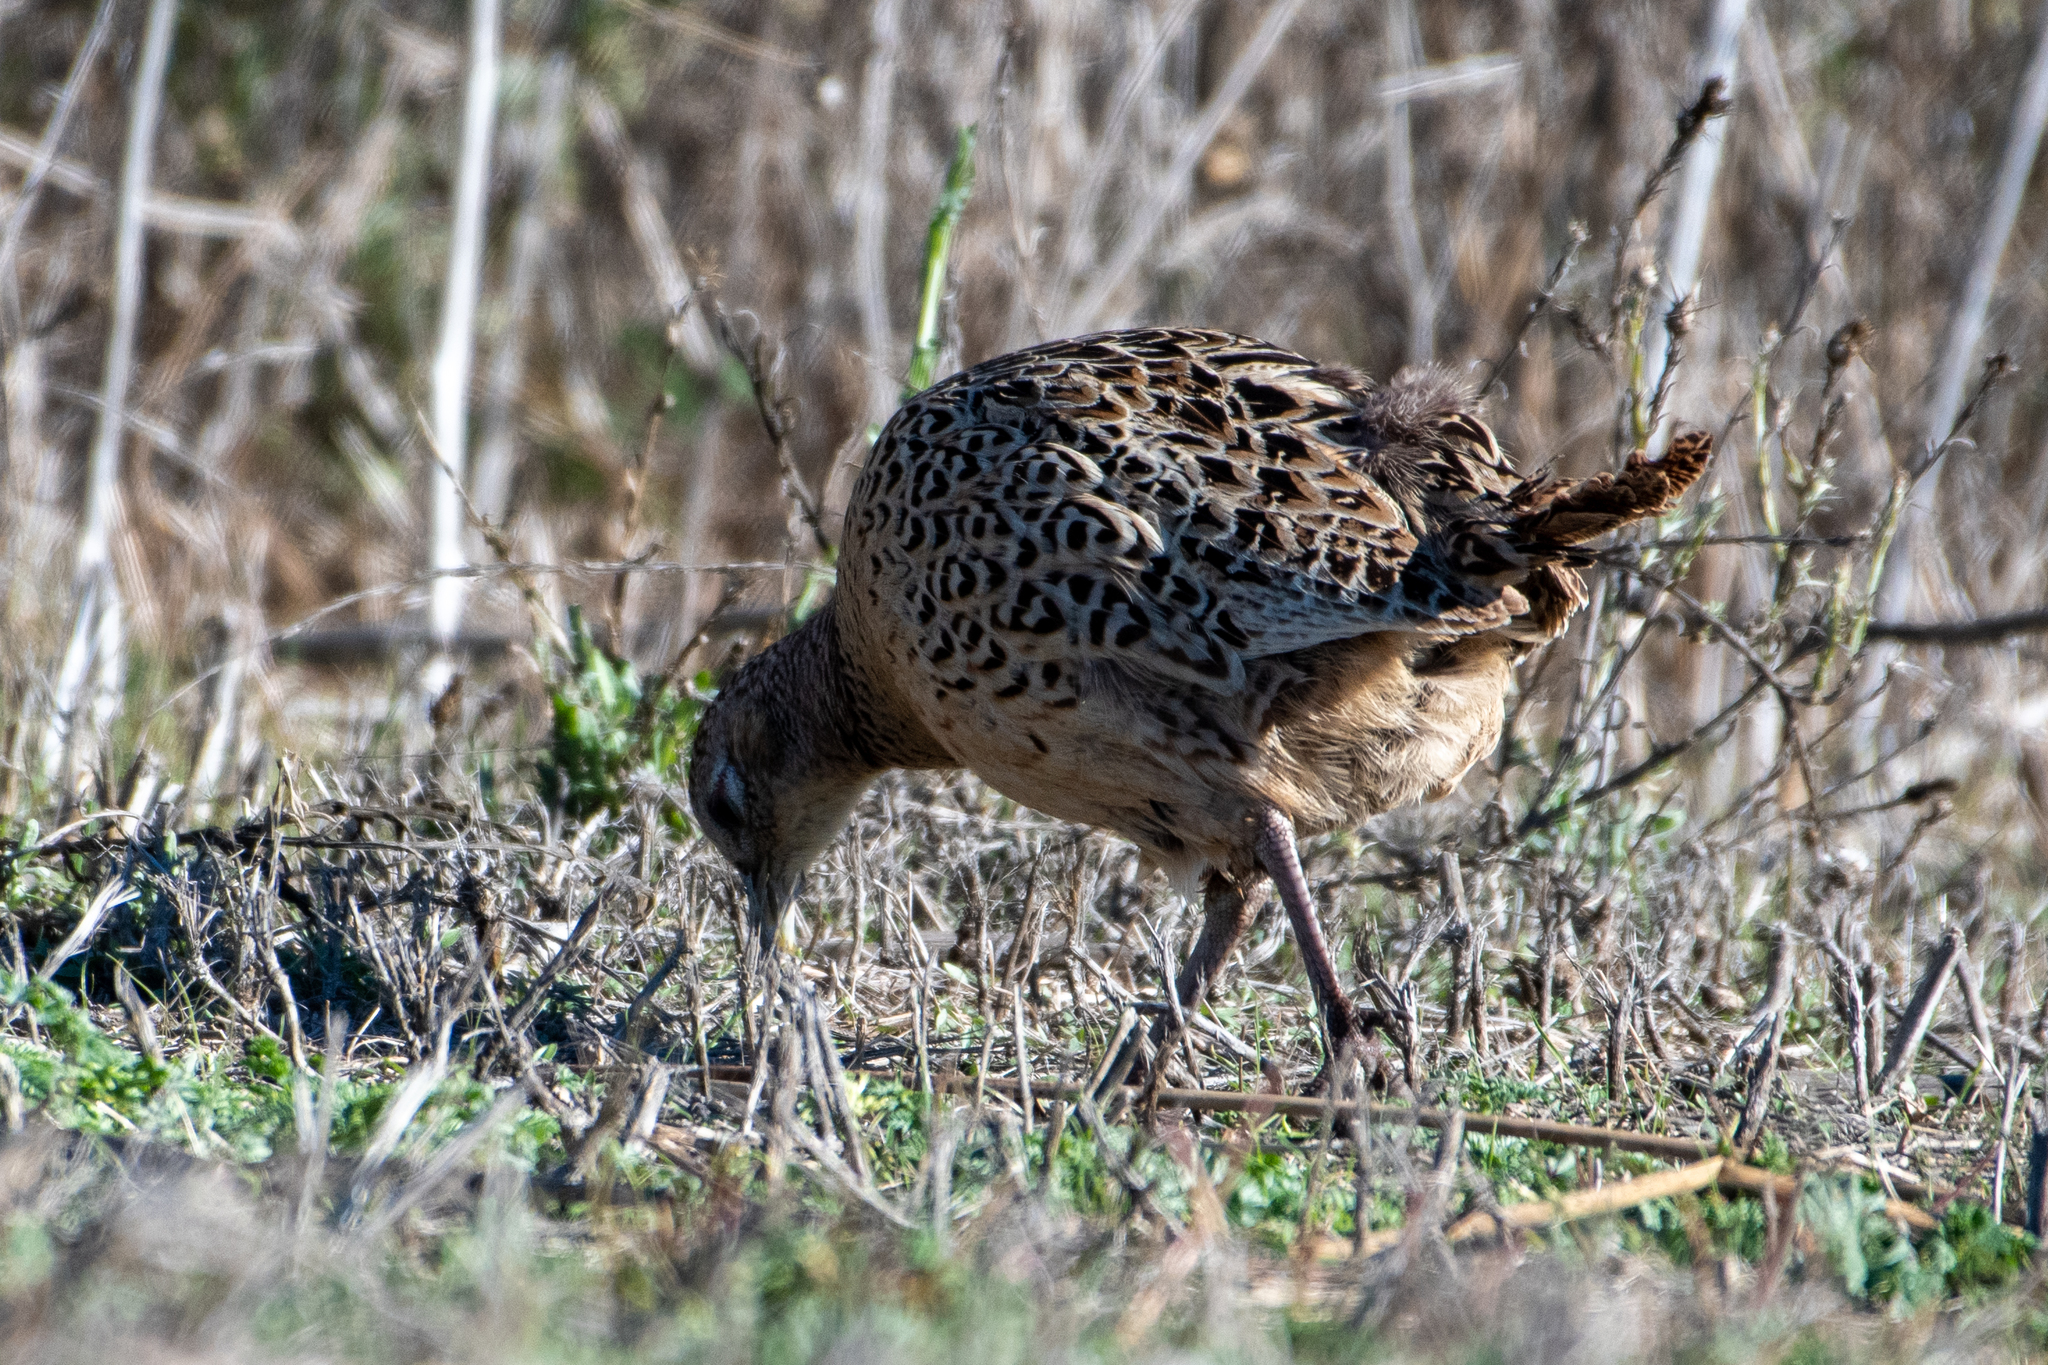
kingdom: Animalia
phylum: Chordata
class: Aves
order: Galliformes
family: Phasianidae
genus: Phasianus
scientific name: Phasianus colchicus
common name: Common pheasant
